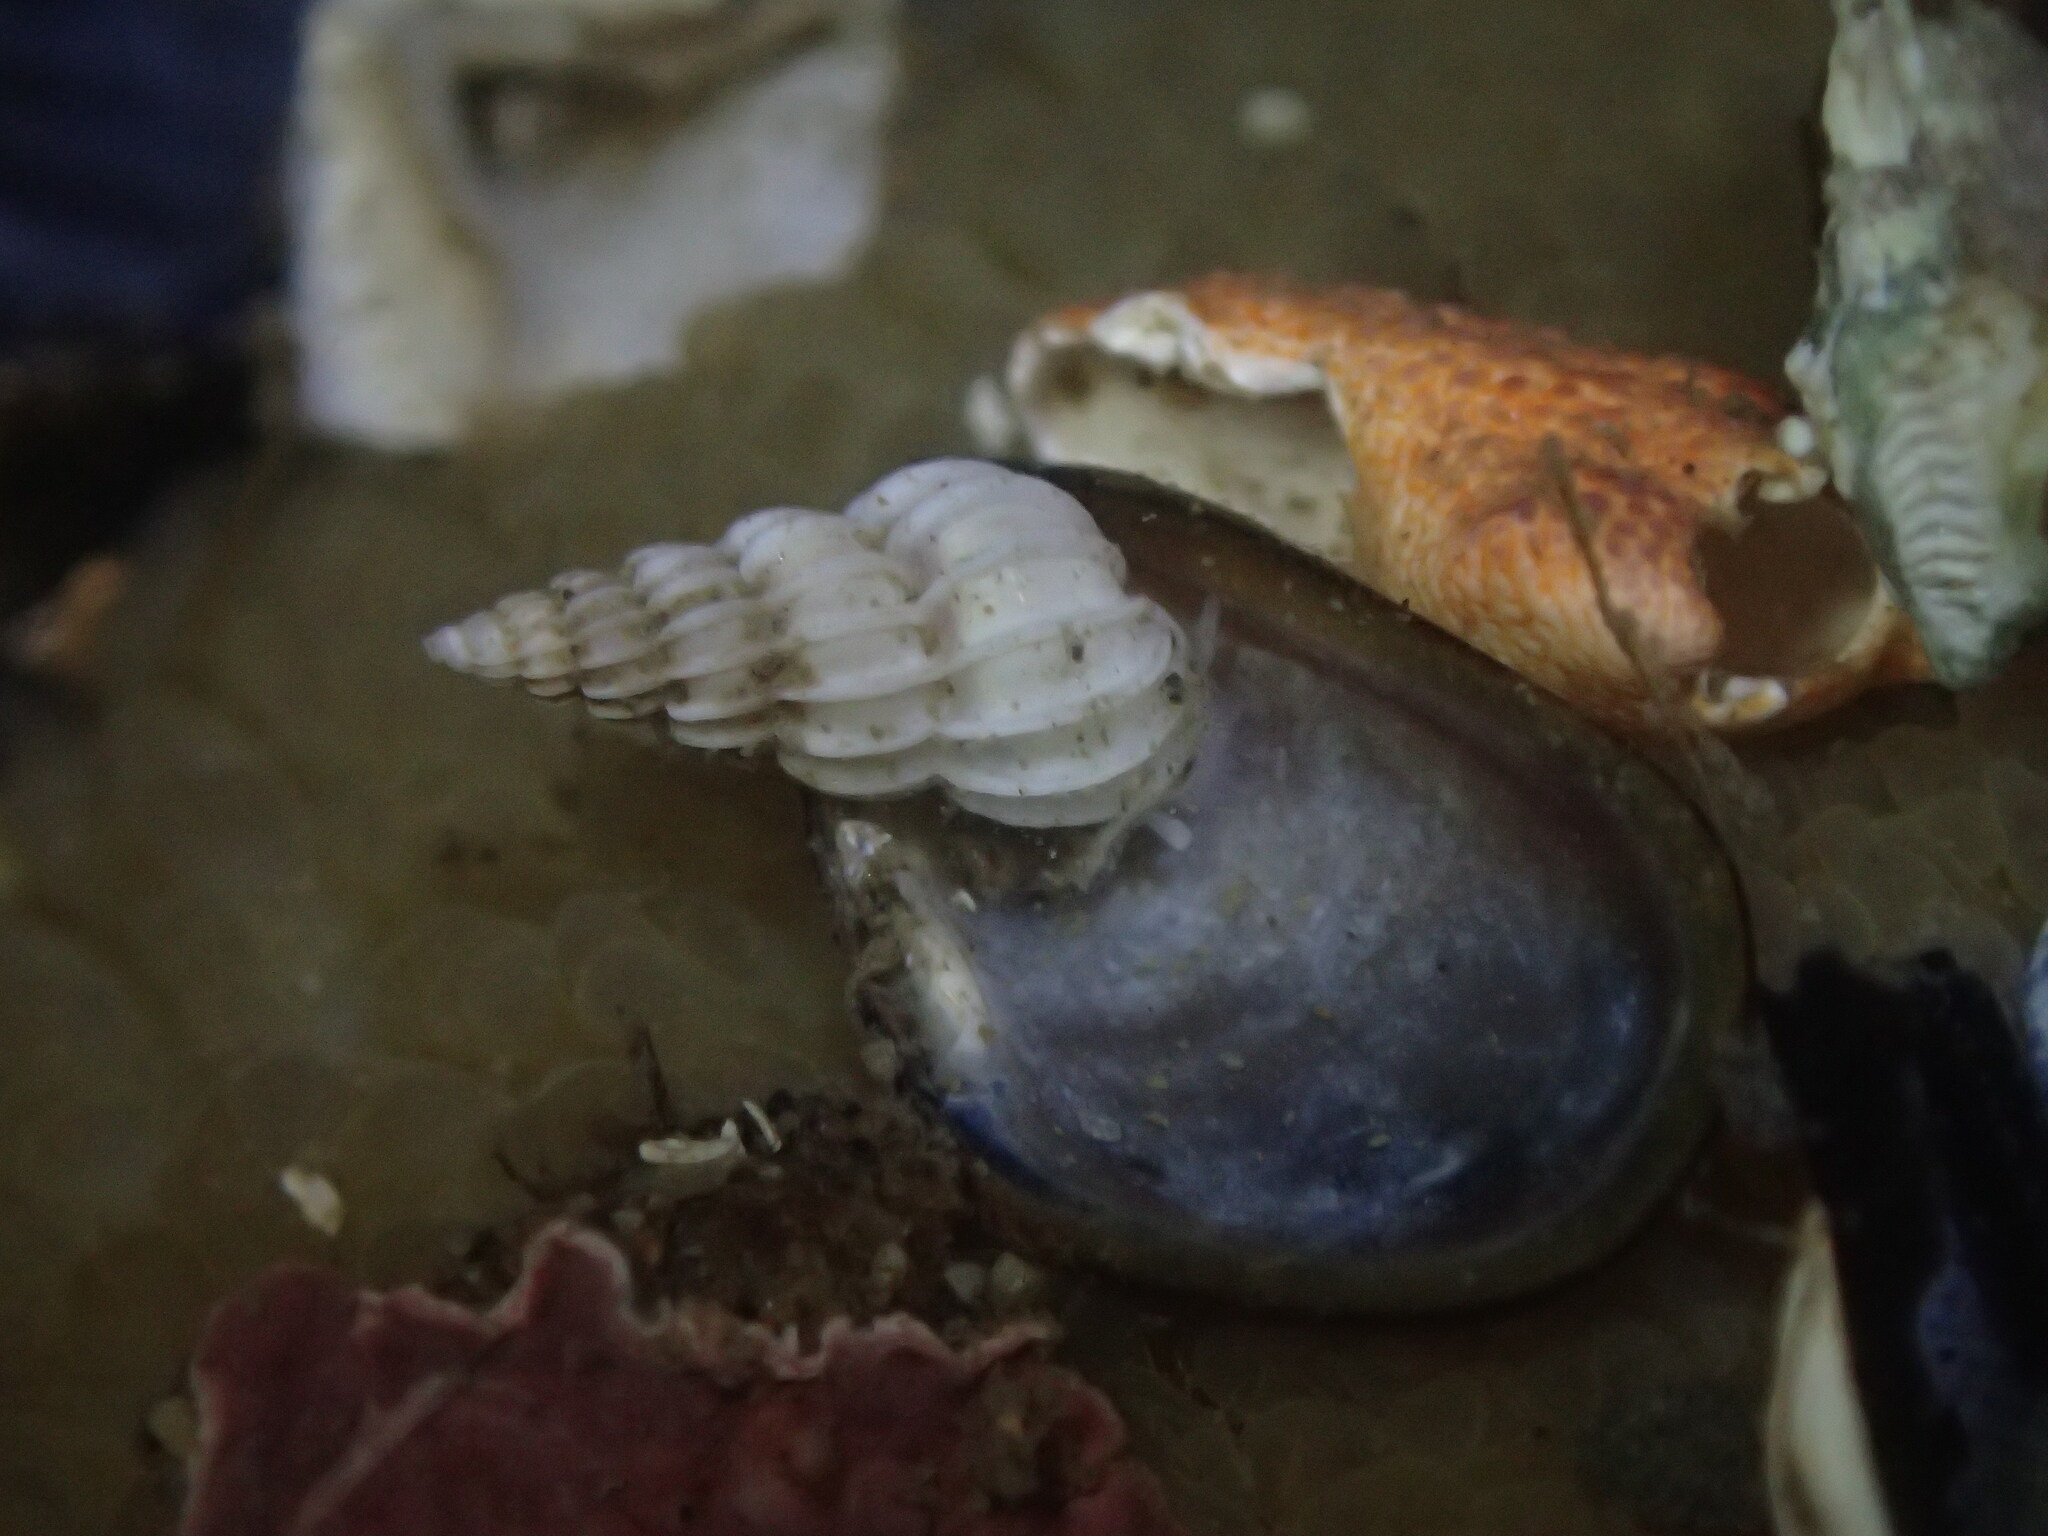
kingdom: Animalia
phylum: Mollusca
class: Gastropoda
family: Epitoniidae
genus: Epitonium
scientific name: Epitonium tinctum
